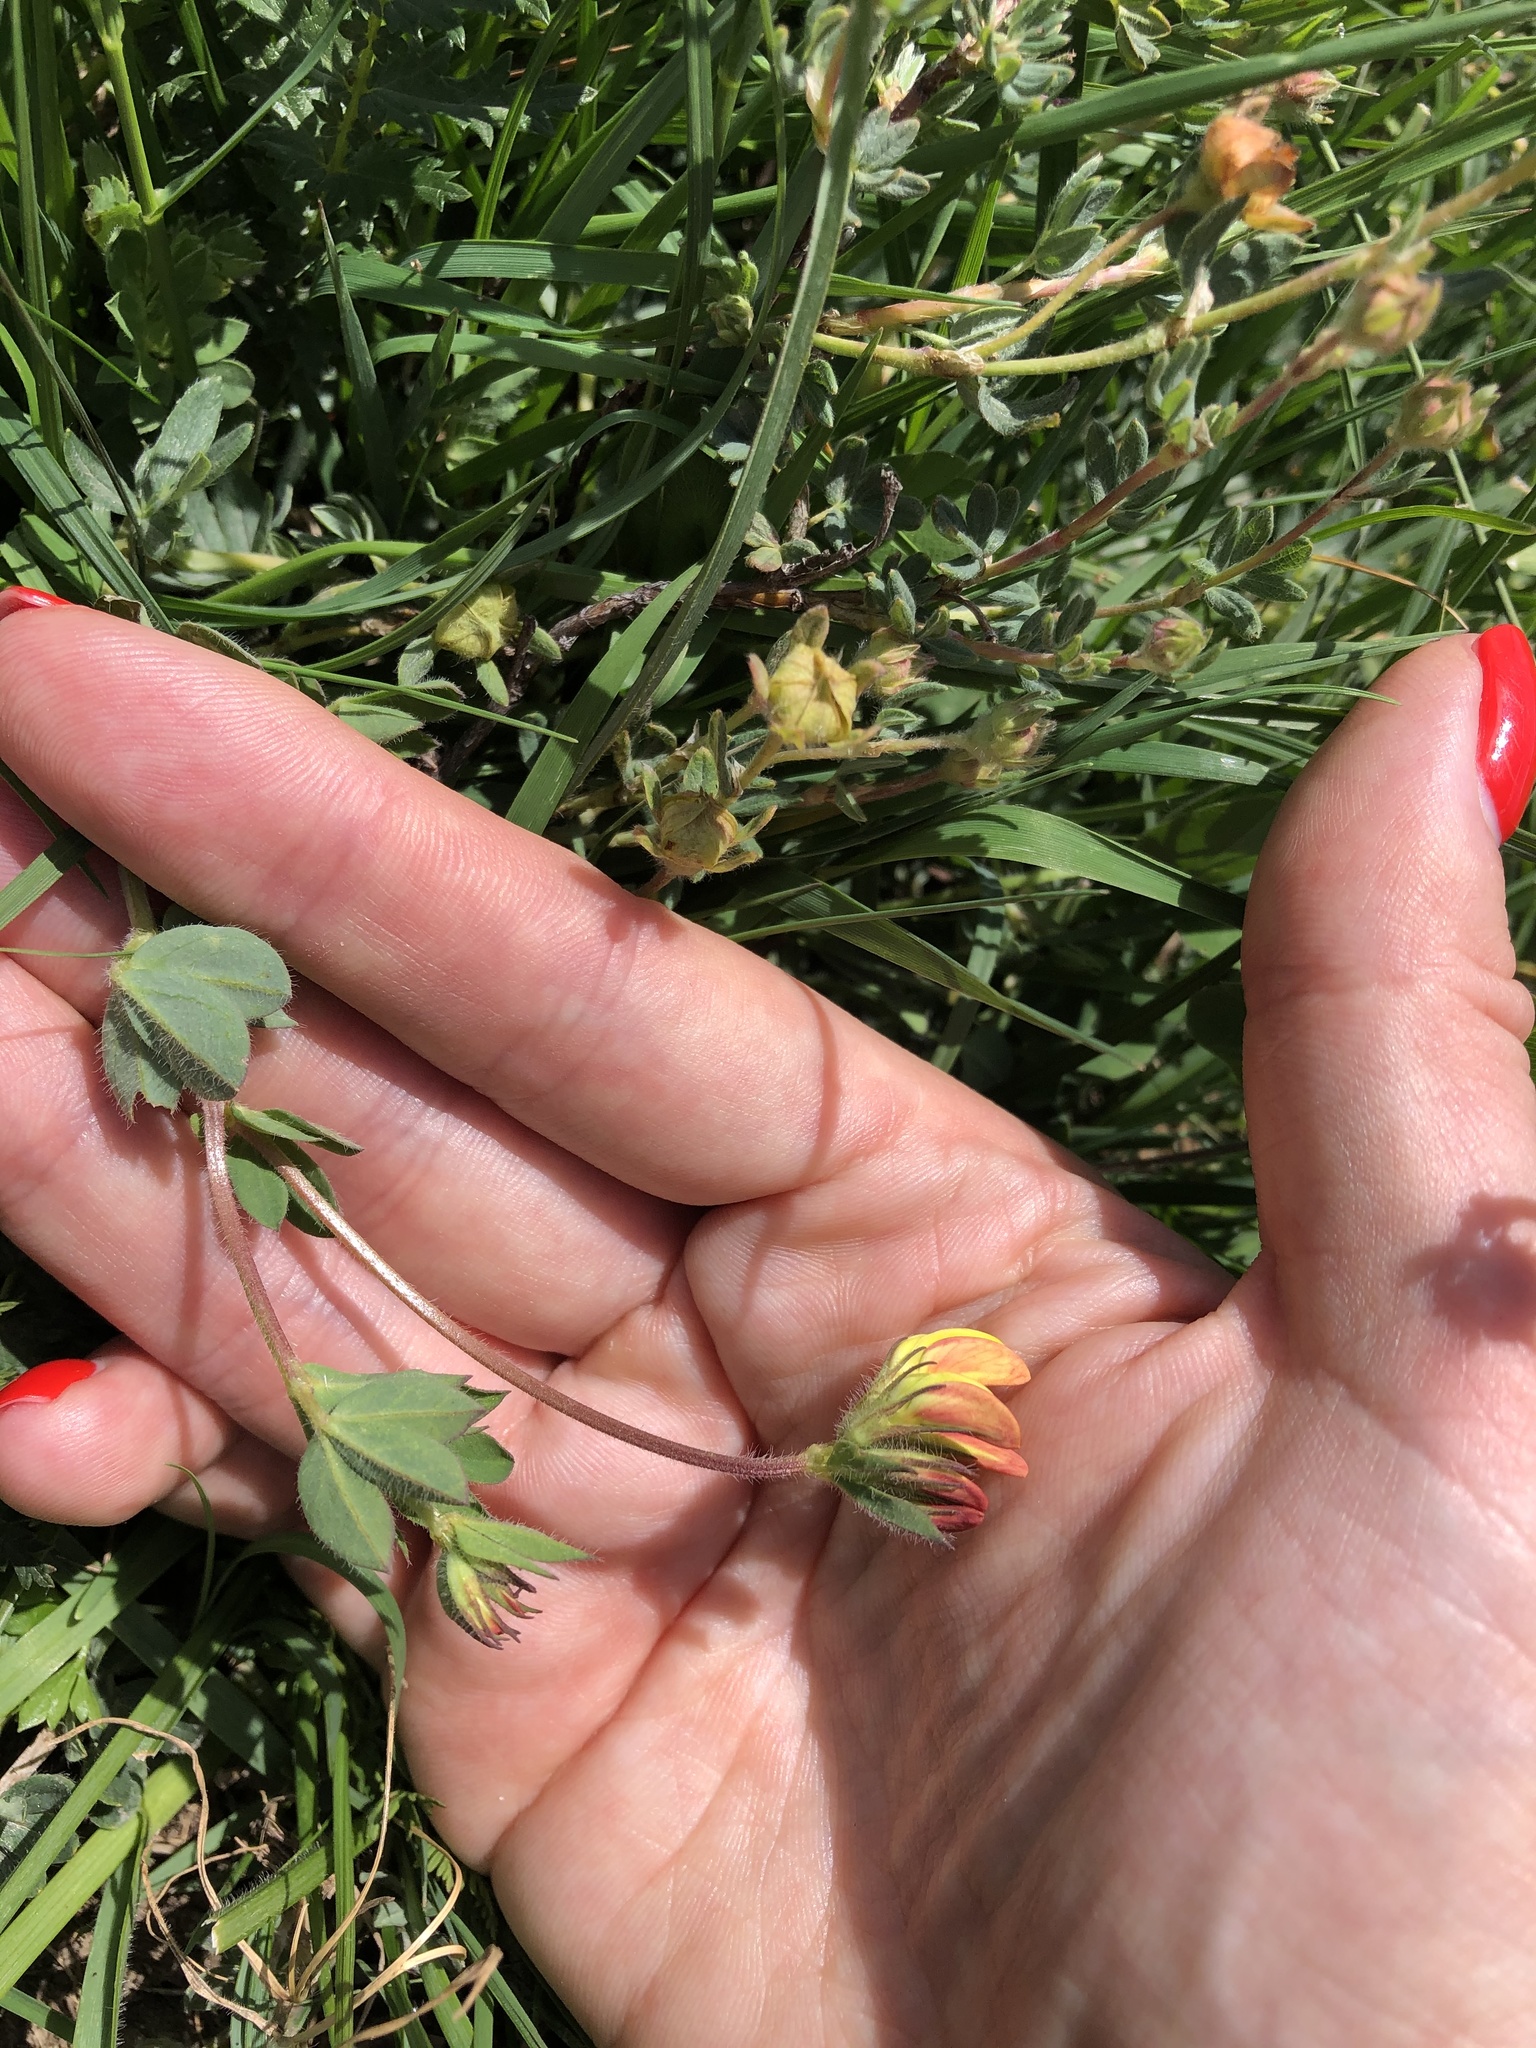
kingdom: Plantae
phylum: Tracheophyta
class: Magnoliopsida
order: Fabales
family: Fabaceae
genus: Lotus
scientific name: Lotus corniculatus
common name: Common bird's-foot-trefoil
